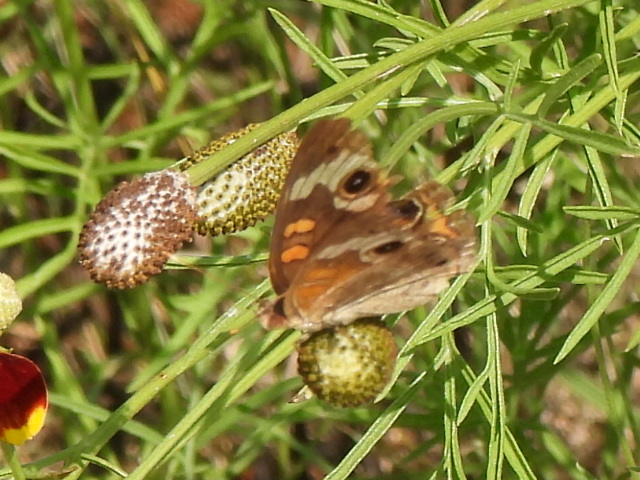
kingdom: Animalia
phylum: Arthropoda
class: Insecta
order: Lepidoptera
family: Nymphalidae
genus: Junonia
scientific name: Junonia coenia
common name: Common buckeye
